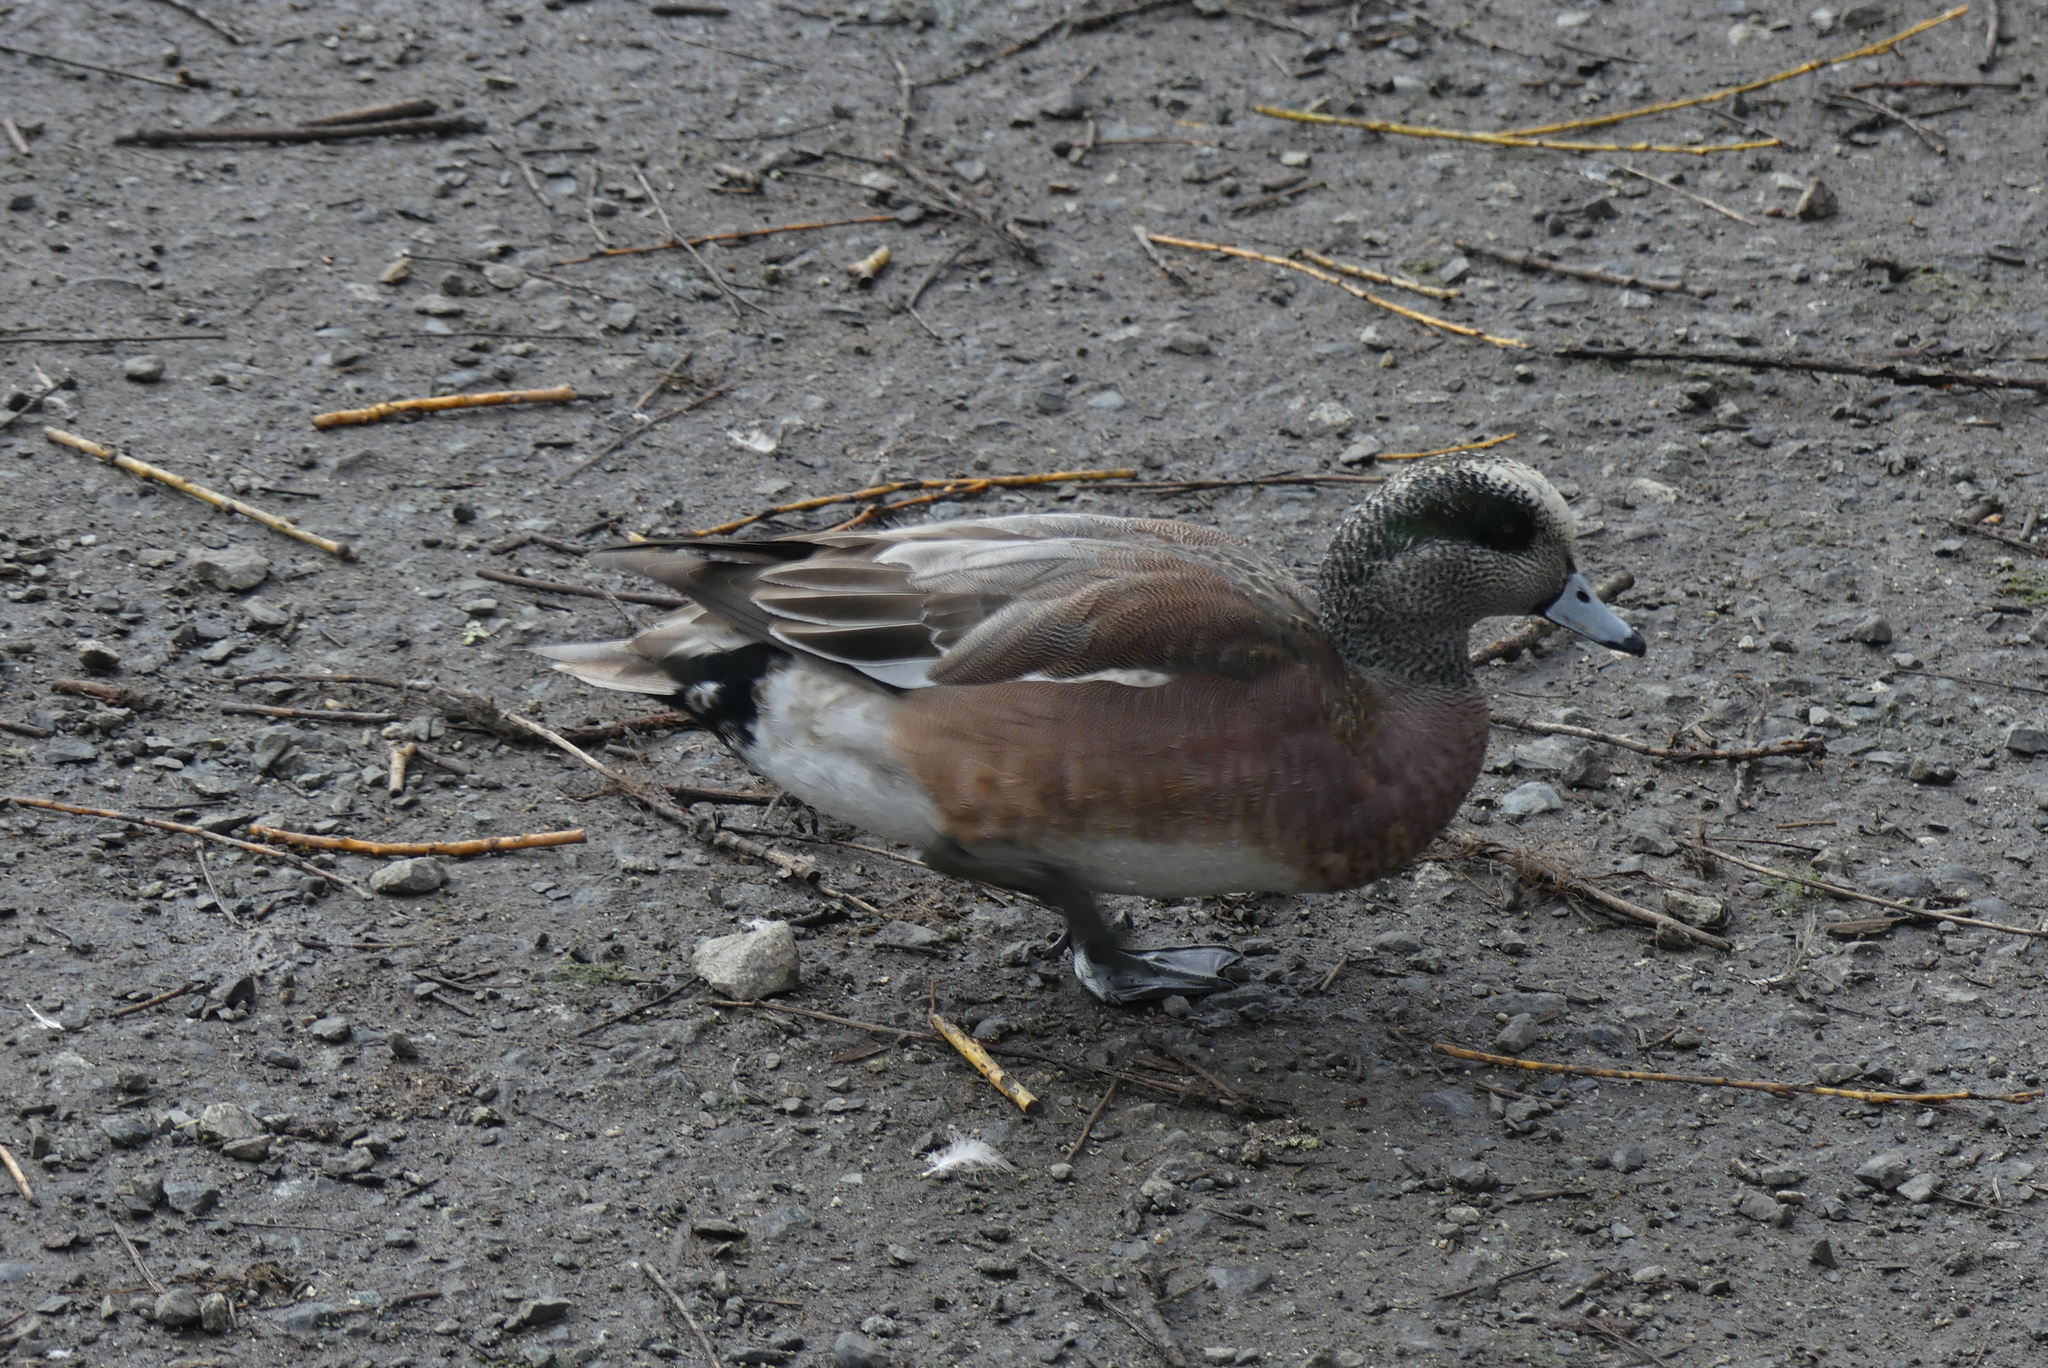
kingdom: Animalia
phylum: Chordata
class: Aves
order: Anseriformes
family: Anatidae
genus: Mareca
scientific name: Mareca americana
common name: American wigeon
